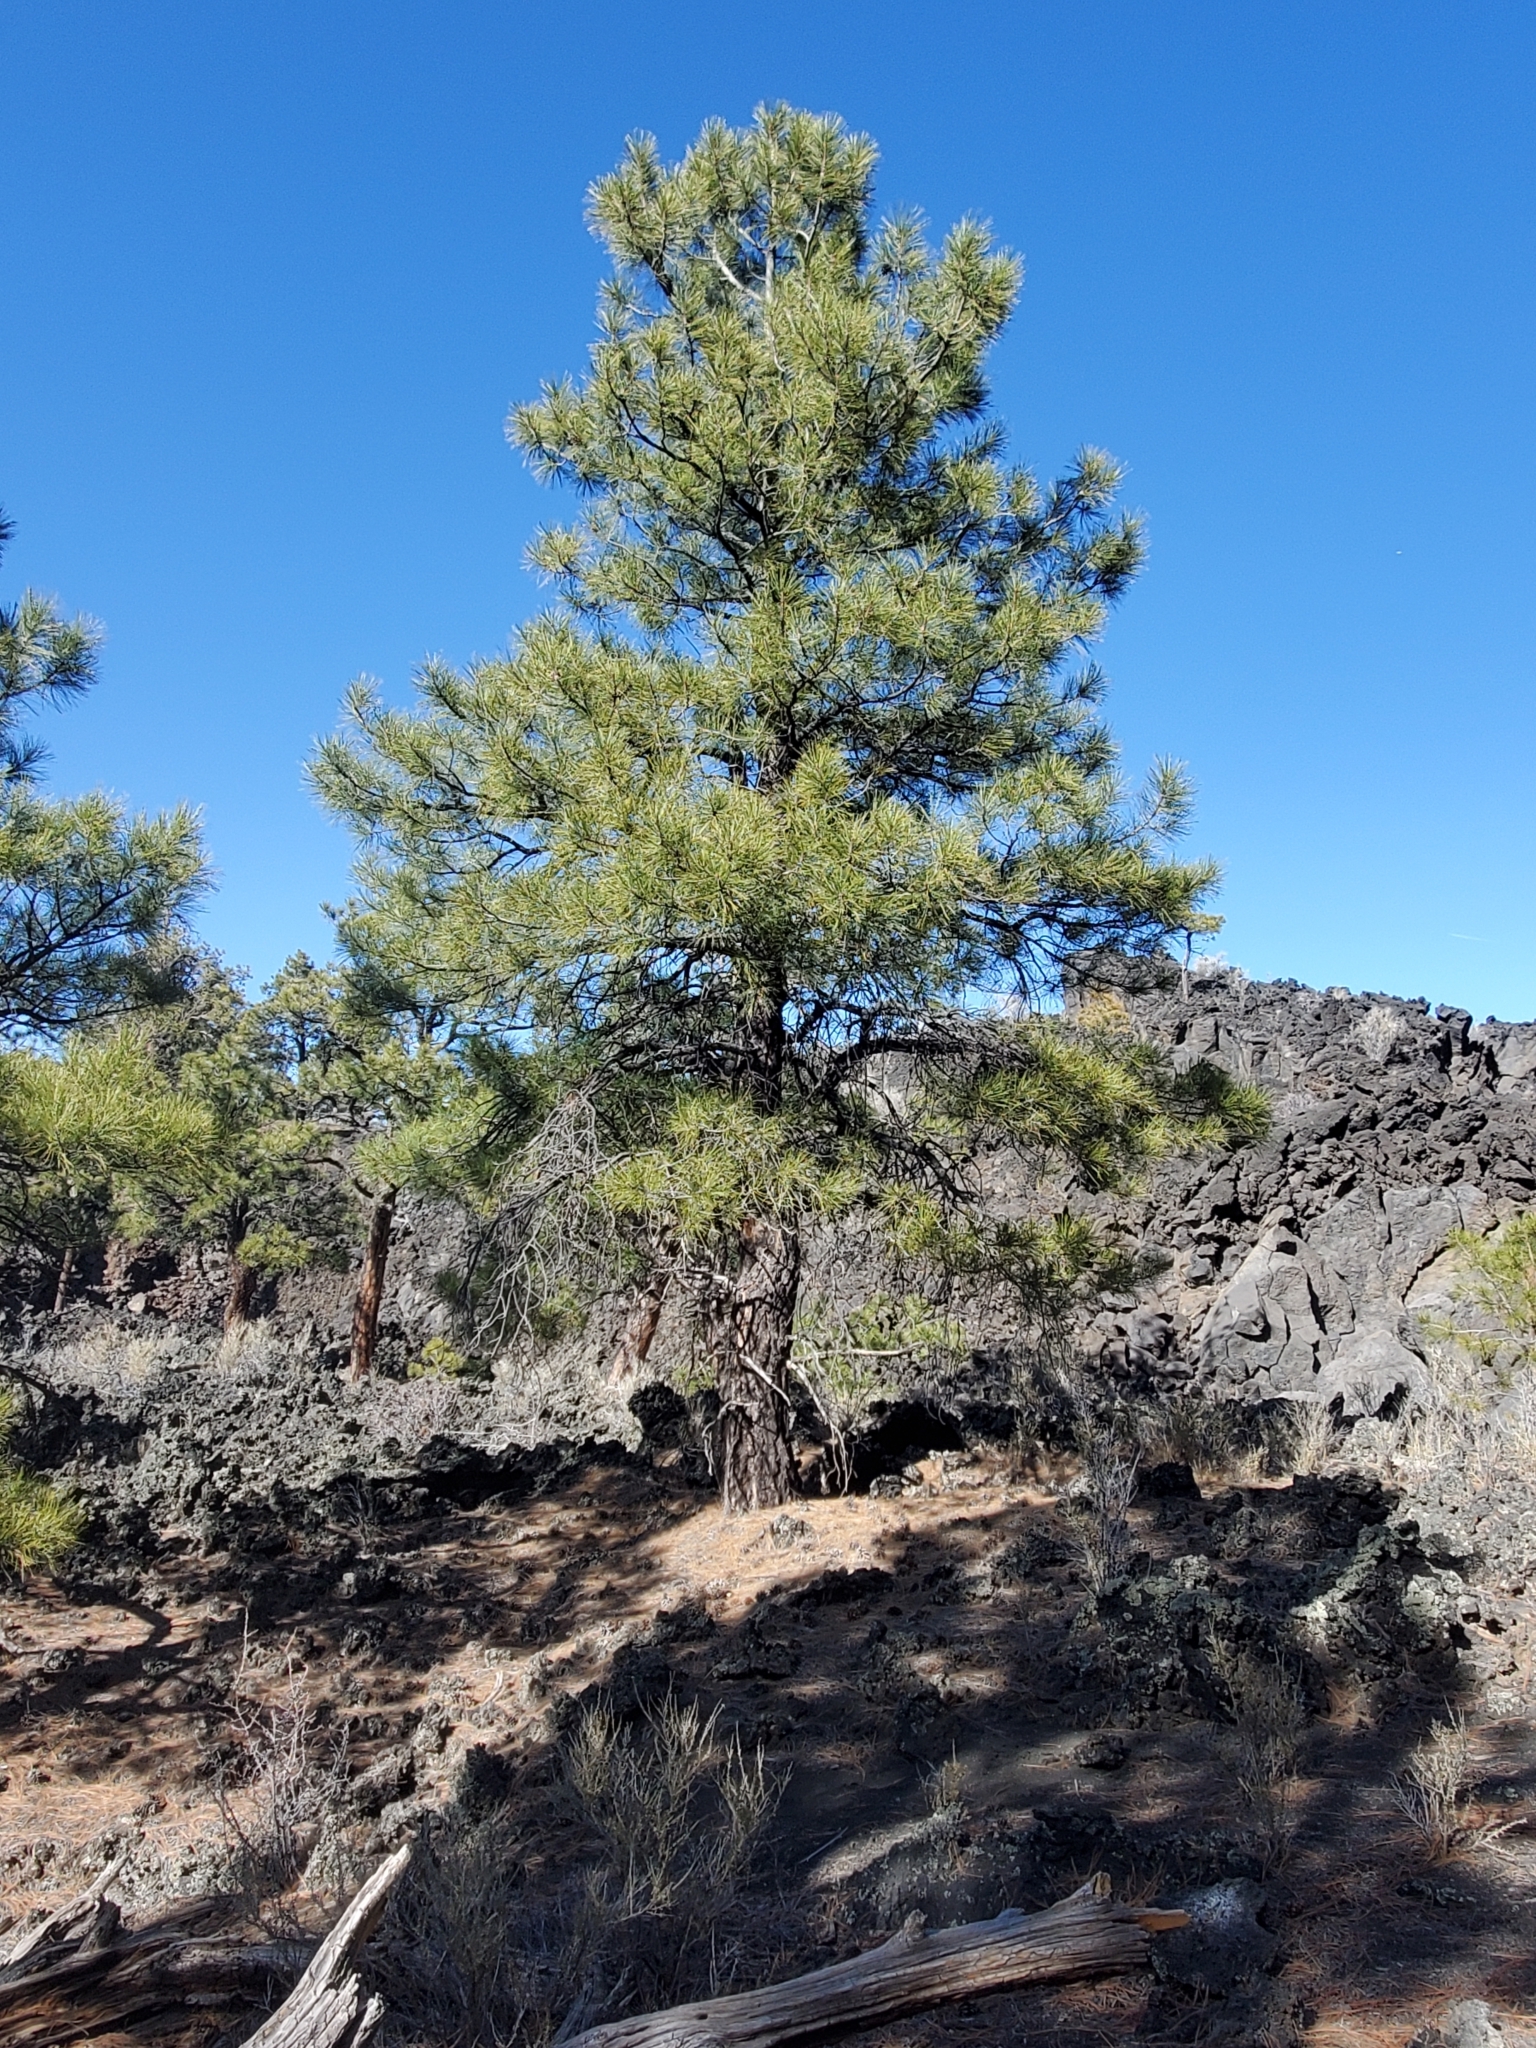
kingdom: Plantae
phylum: Tracheophyta
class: Pinopsida
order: Pinales
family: Pinaceae
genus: Pinus
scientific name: Pinus ponderosa
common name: Western yellow-pine
